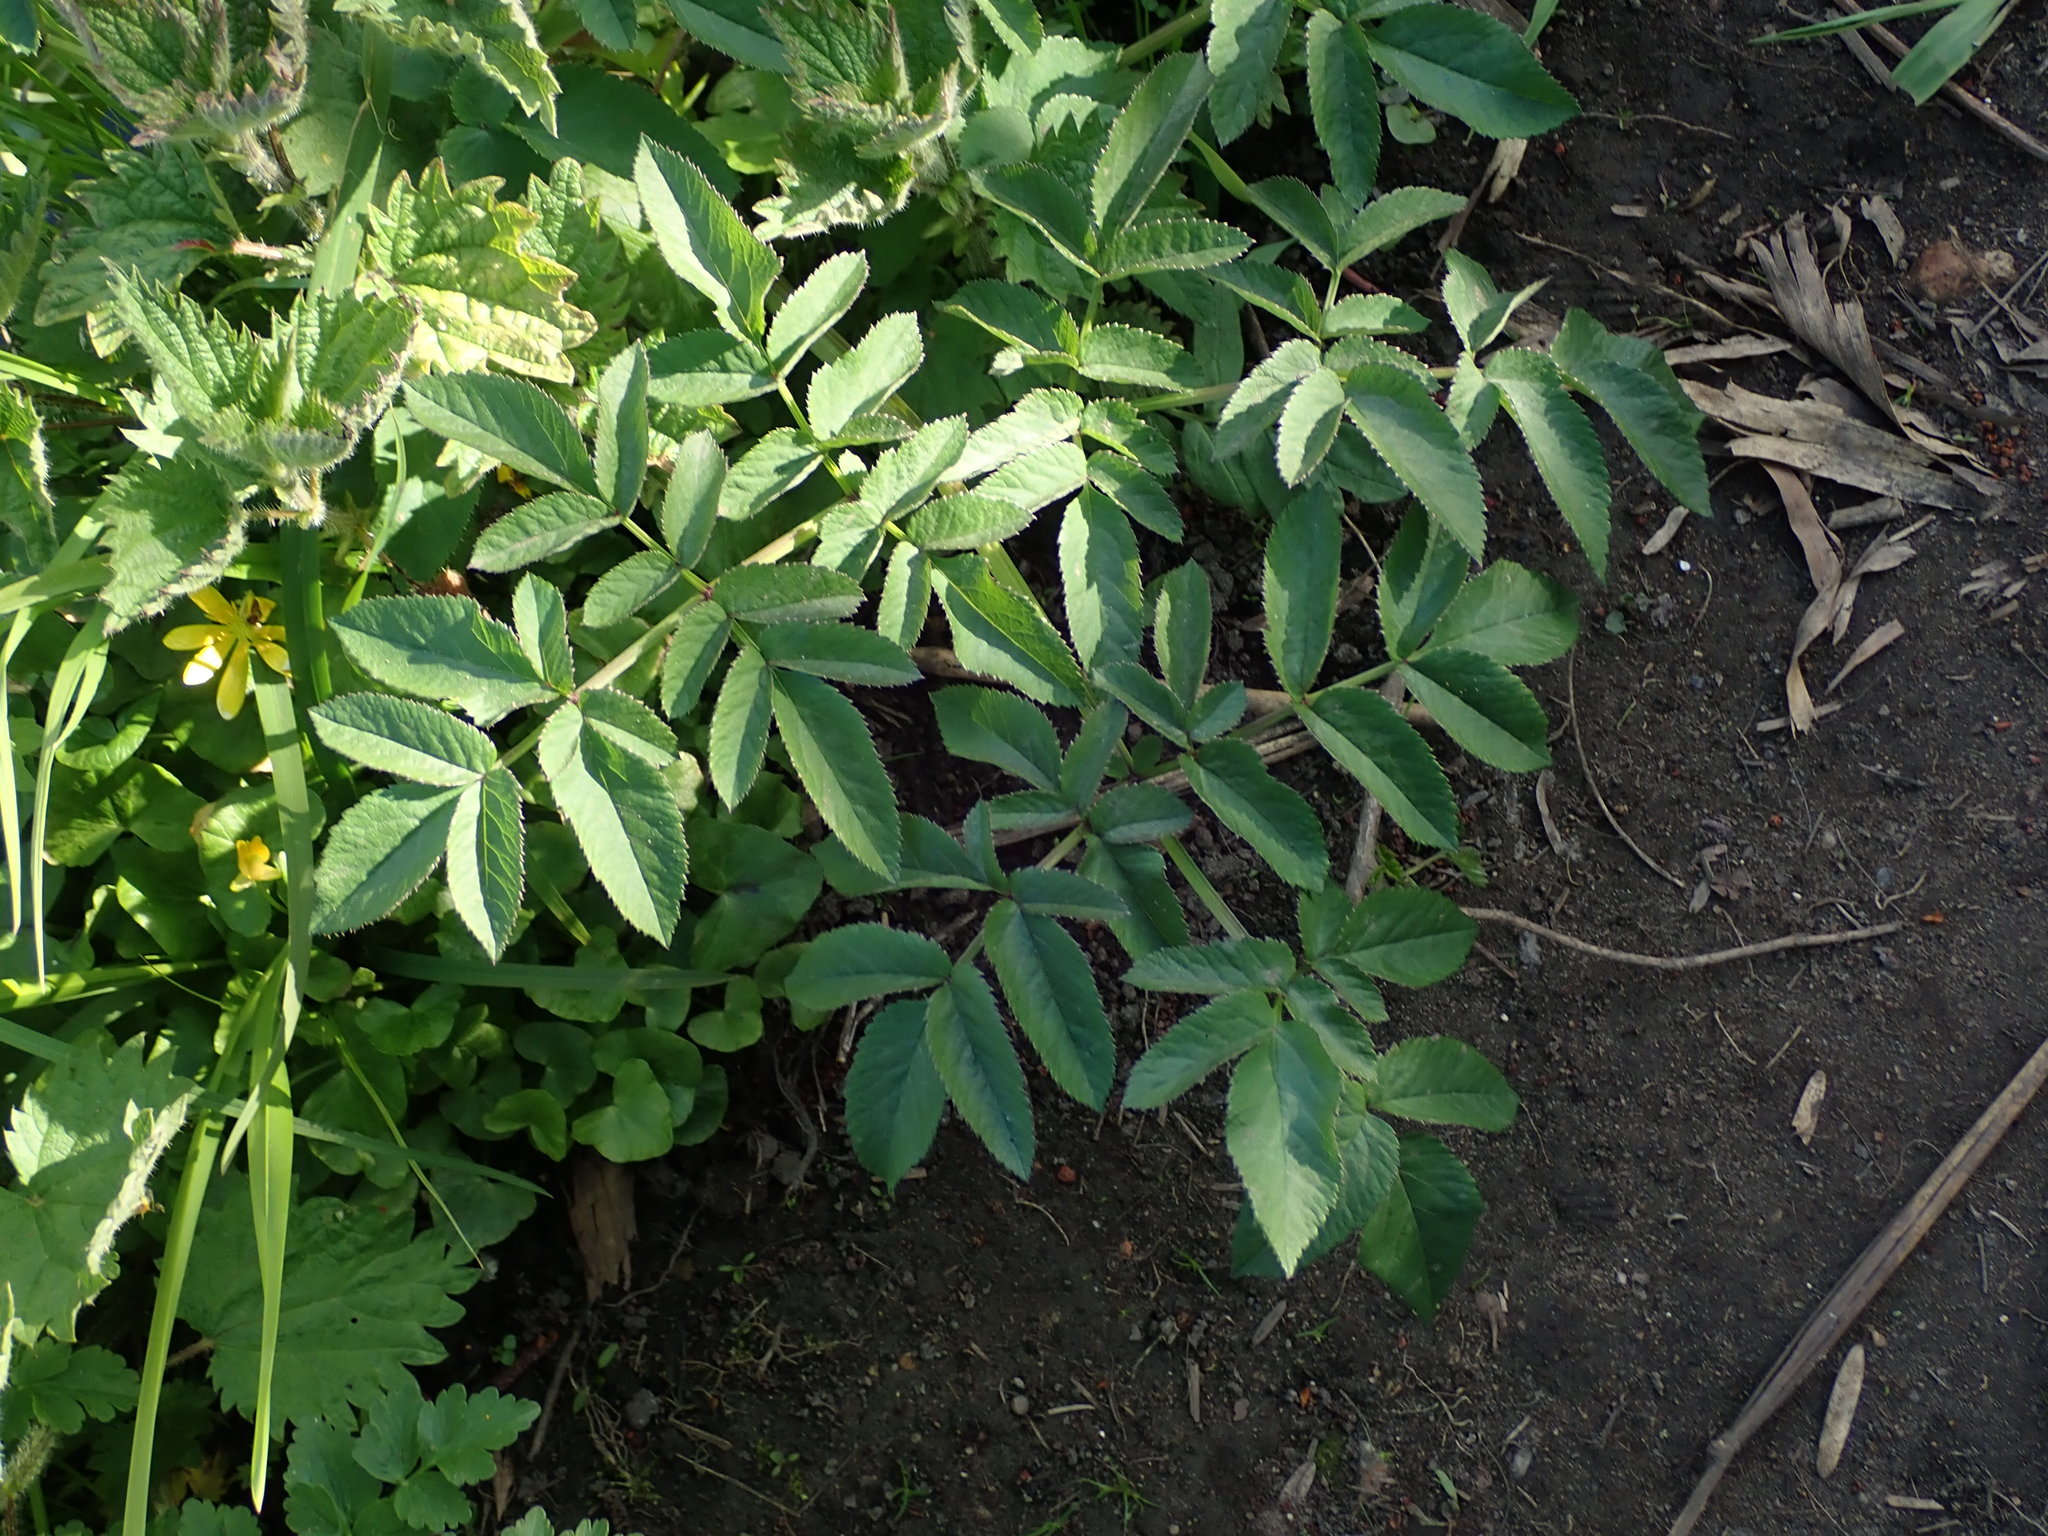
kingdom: Plantae
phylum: Tracheophyta
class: Magnoliopsida
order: Apiales
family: Apiaceae
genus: Angelica
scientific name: Angelica sylvestris
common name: Wild angelica
